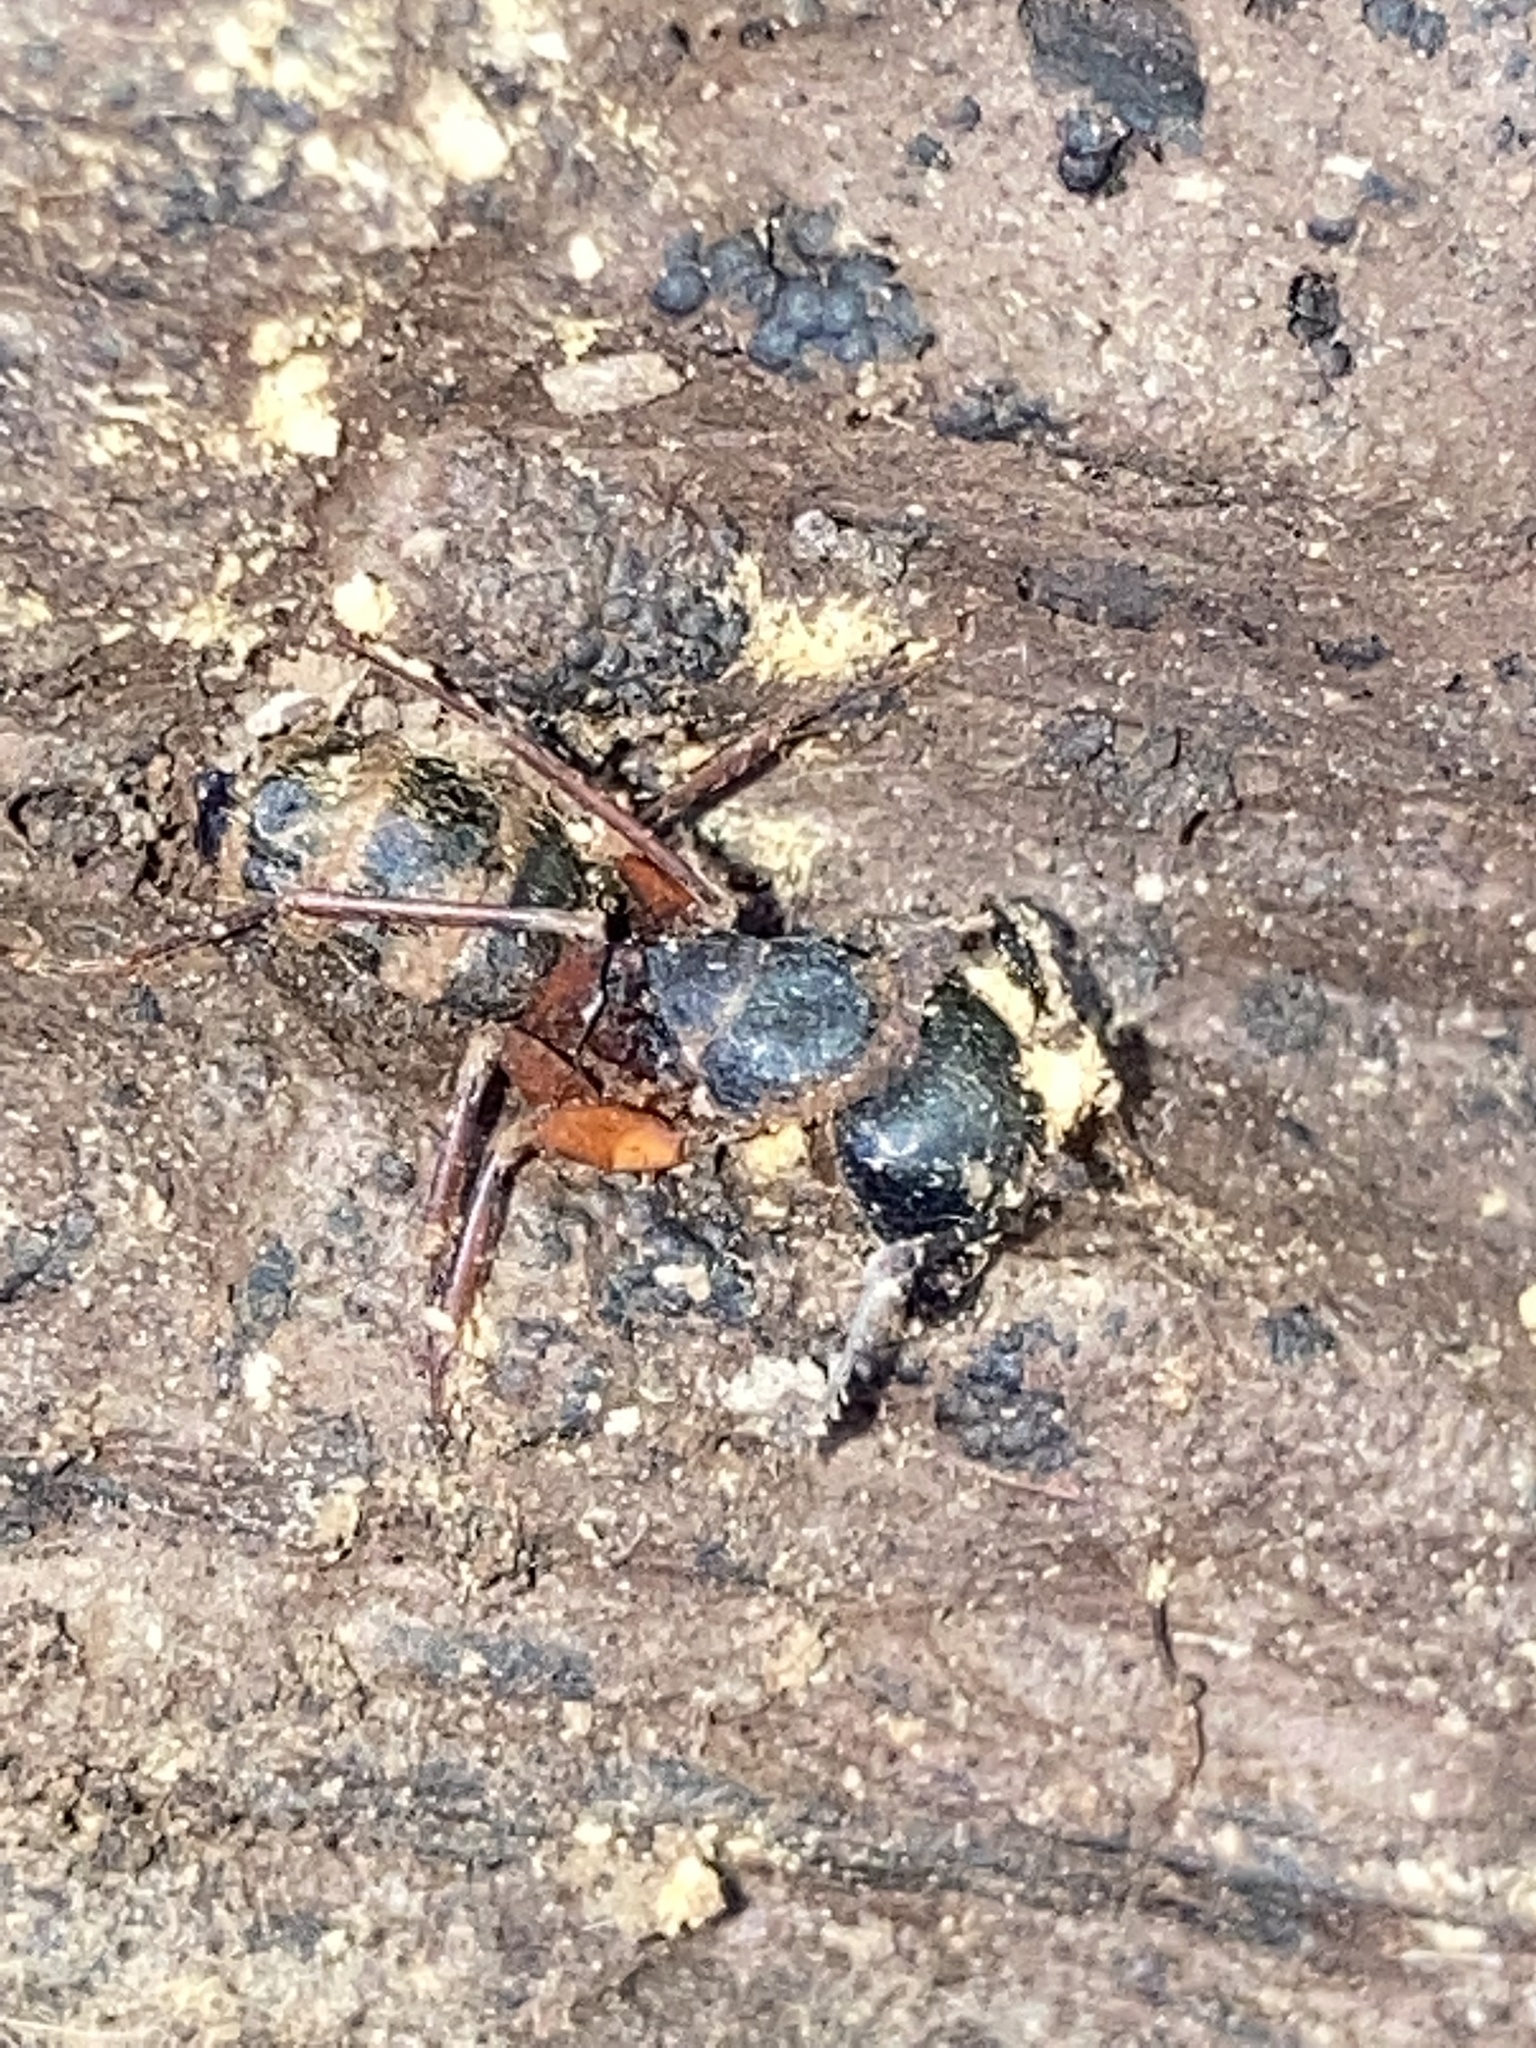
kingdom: Animalia
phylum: Arthropoda
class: Insecta
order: Hymenoptera
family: Formicidae
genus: Camponotus
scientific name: Camponotus chromaiodes
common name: Red carpenter ant
